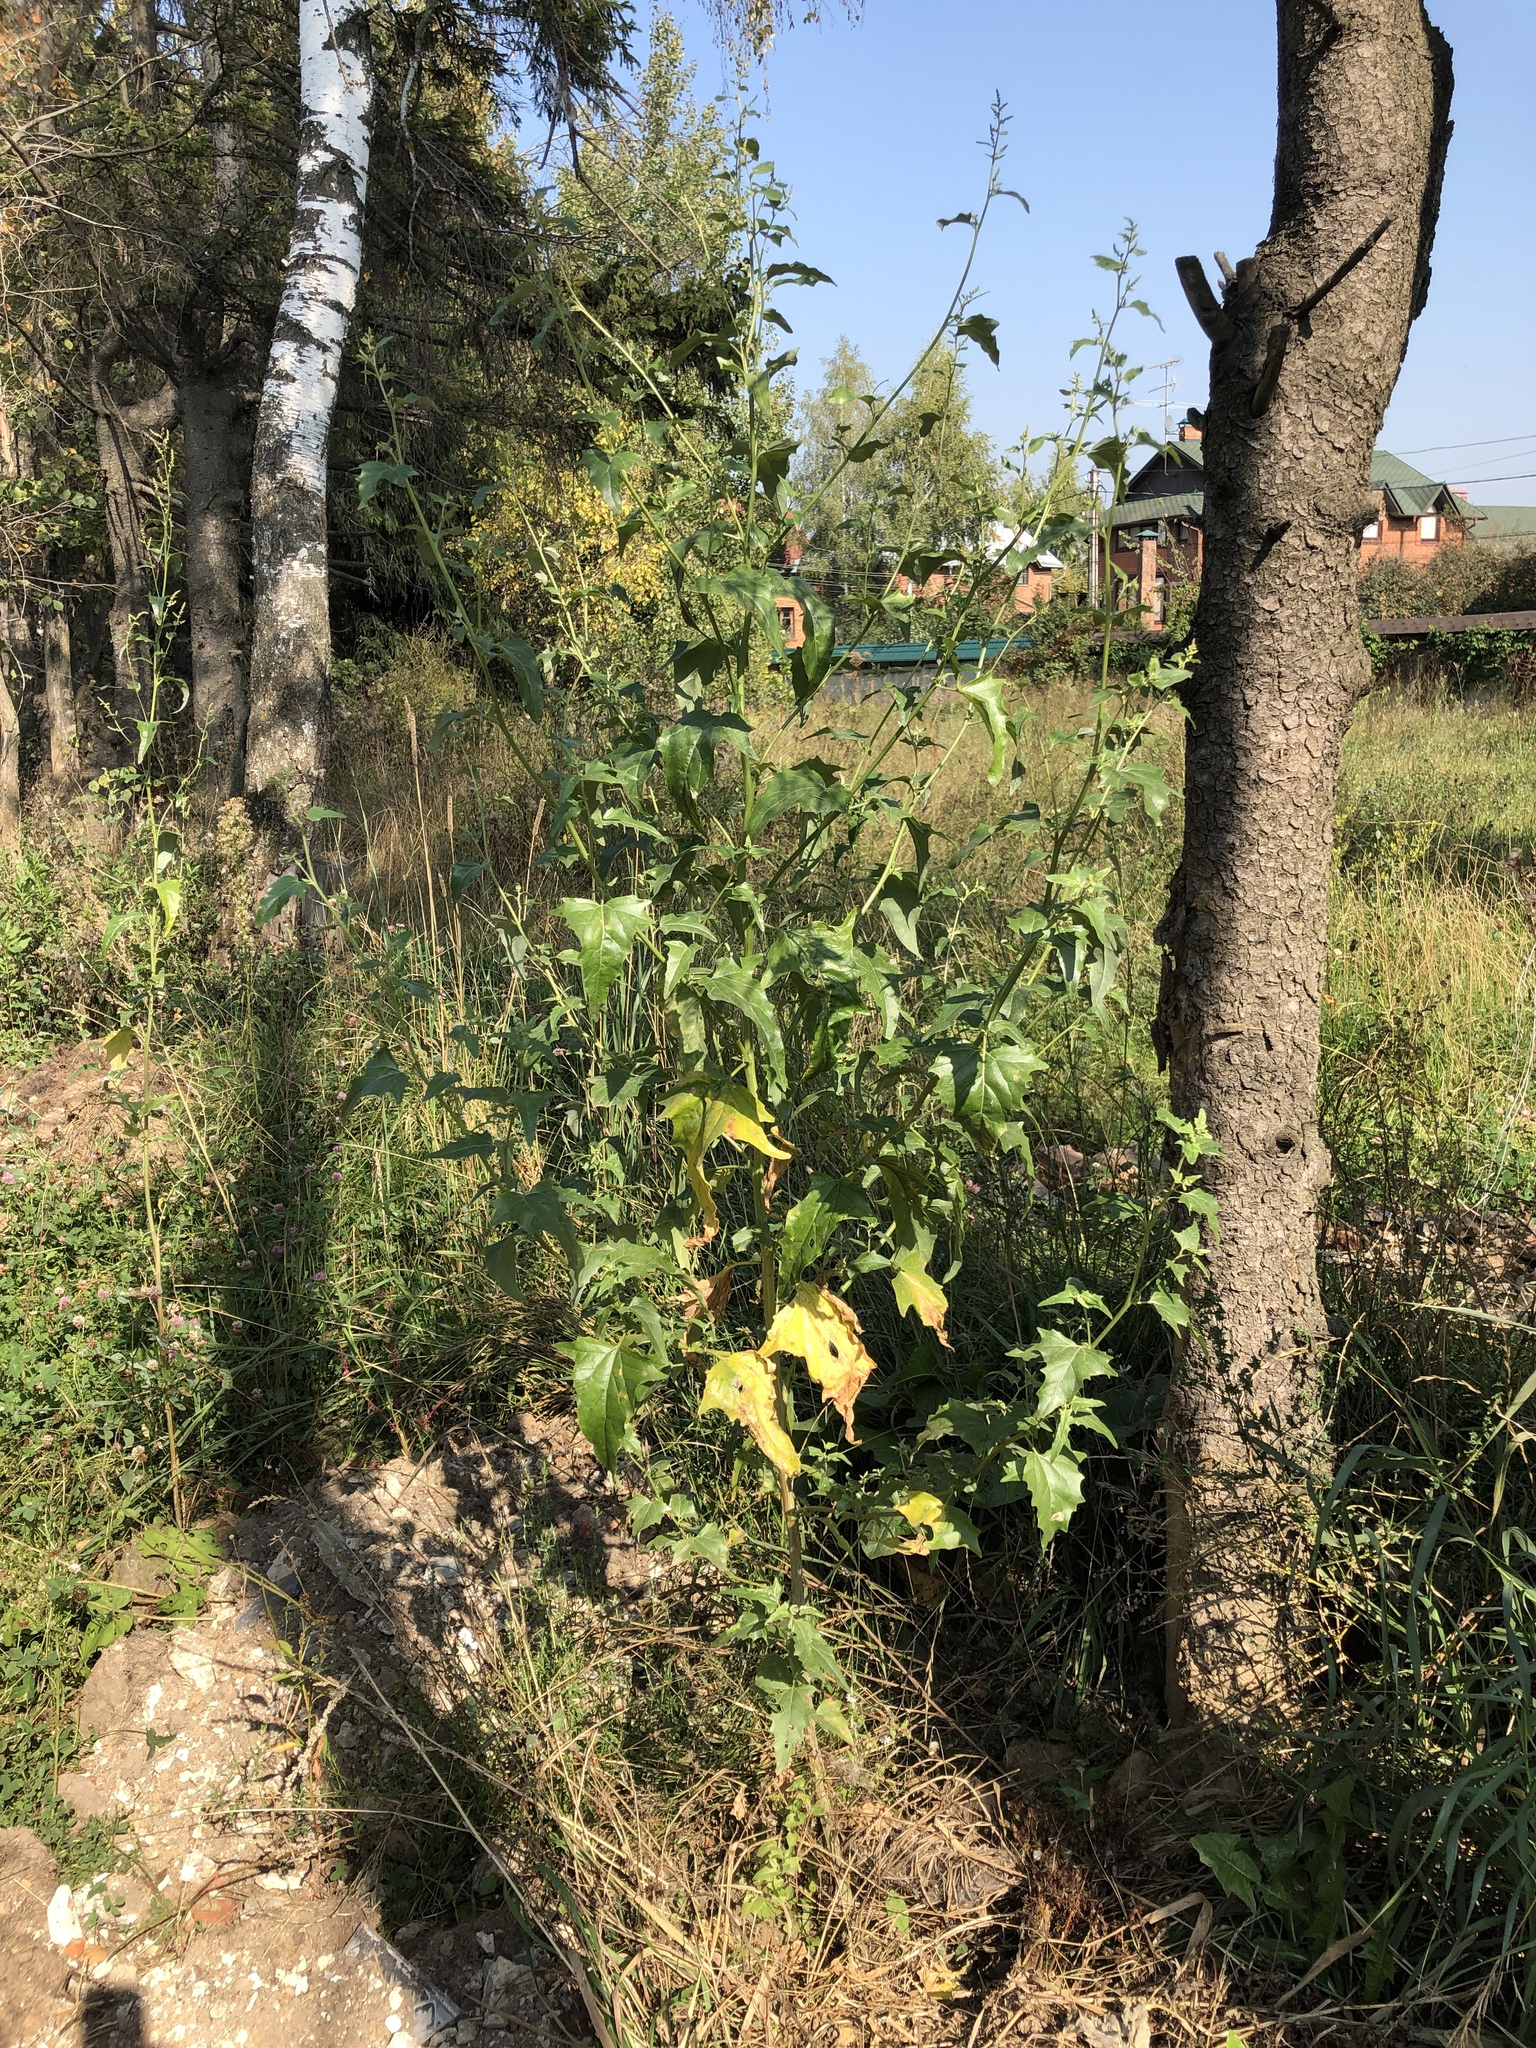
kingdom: Plantae
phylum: Tracheophyta
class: Magnoliopsida
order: Caryophyllales
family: Amaranthaceae
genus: Atriplex
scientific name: Atriplex sagittata
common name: Purple orache
